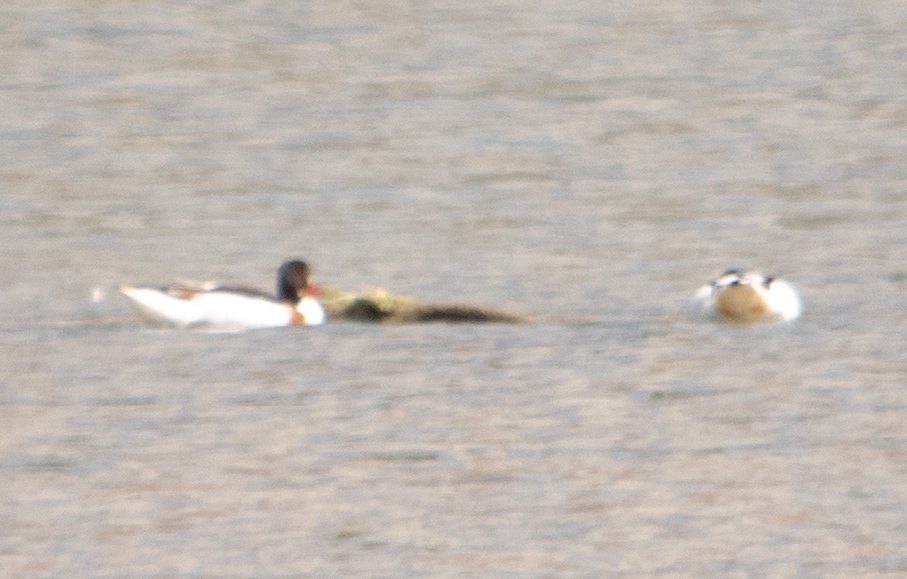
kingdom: Animalia
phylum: Chordata
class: Aves
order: Anseriformes
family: Anatidae
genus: Tadorna
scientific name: Tadorna tadorna
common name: Common shelduck
